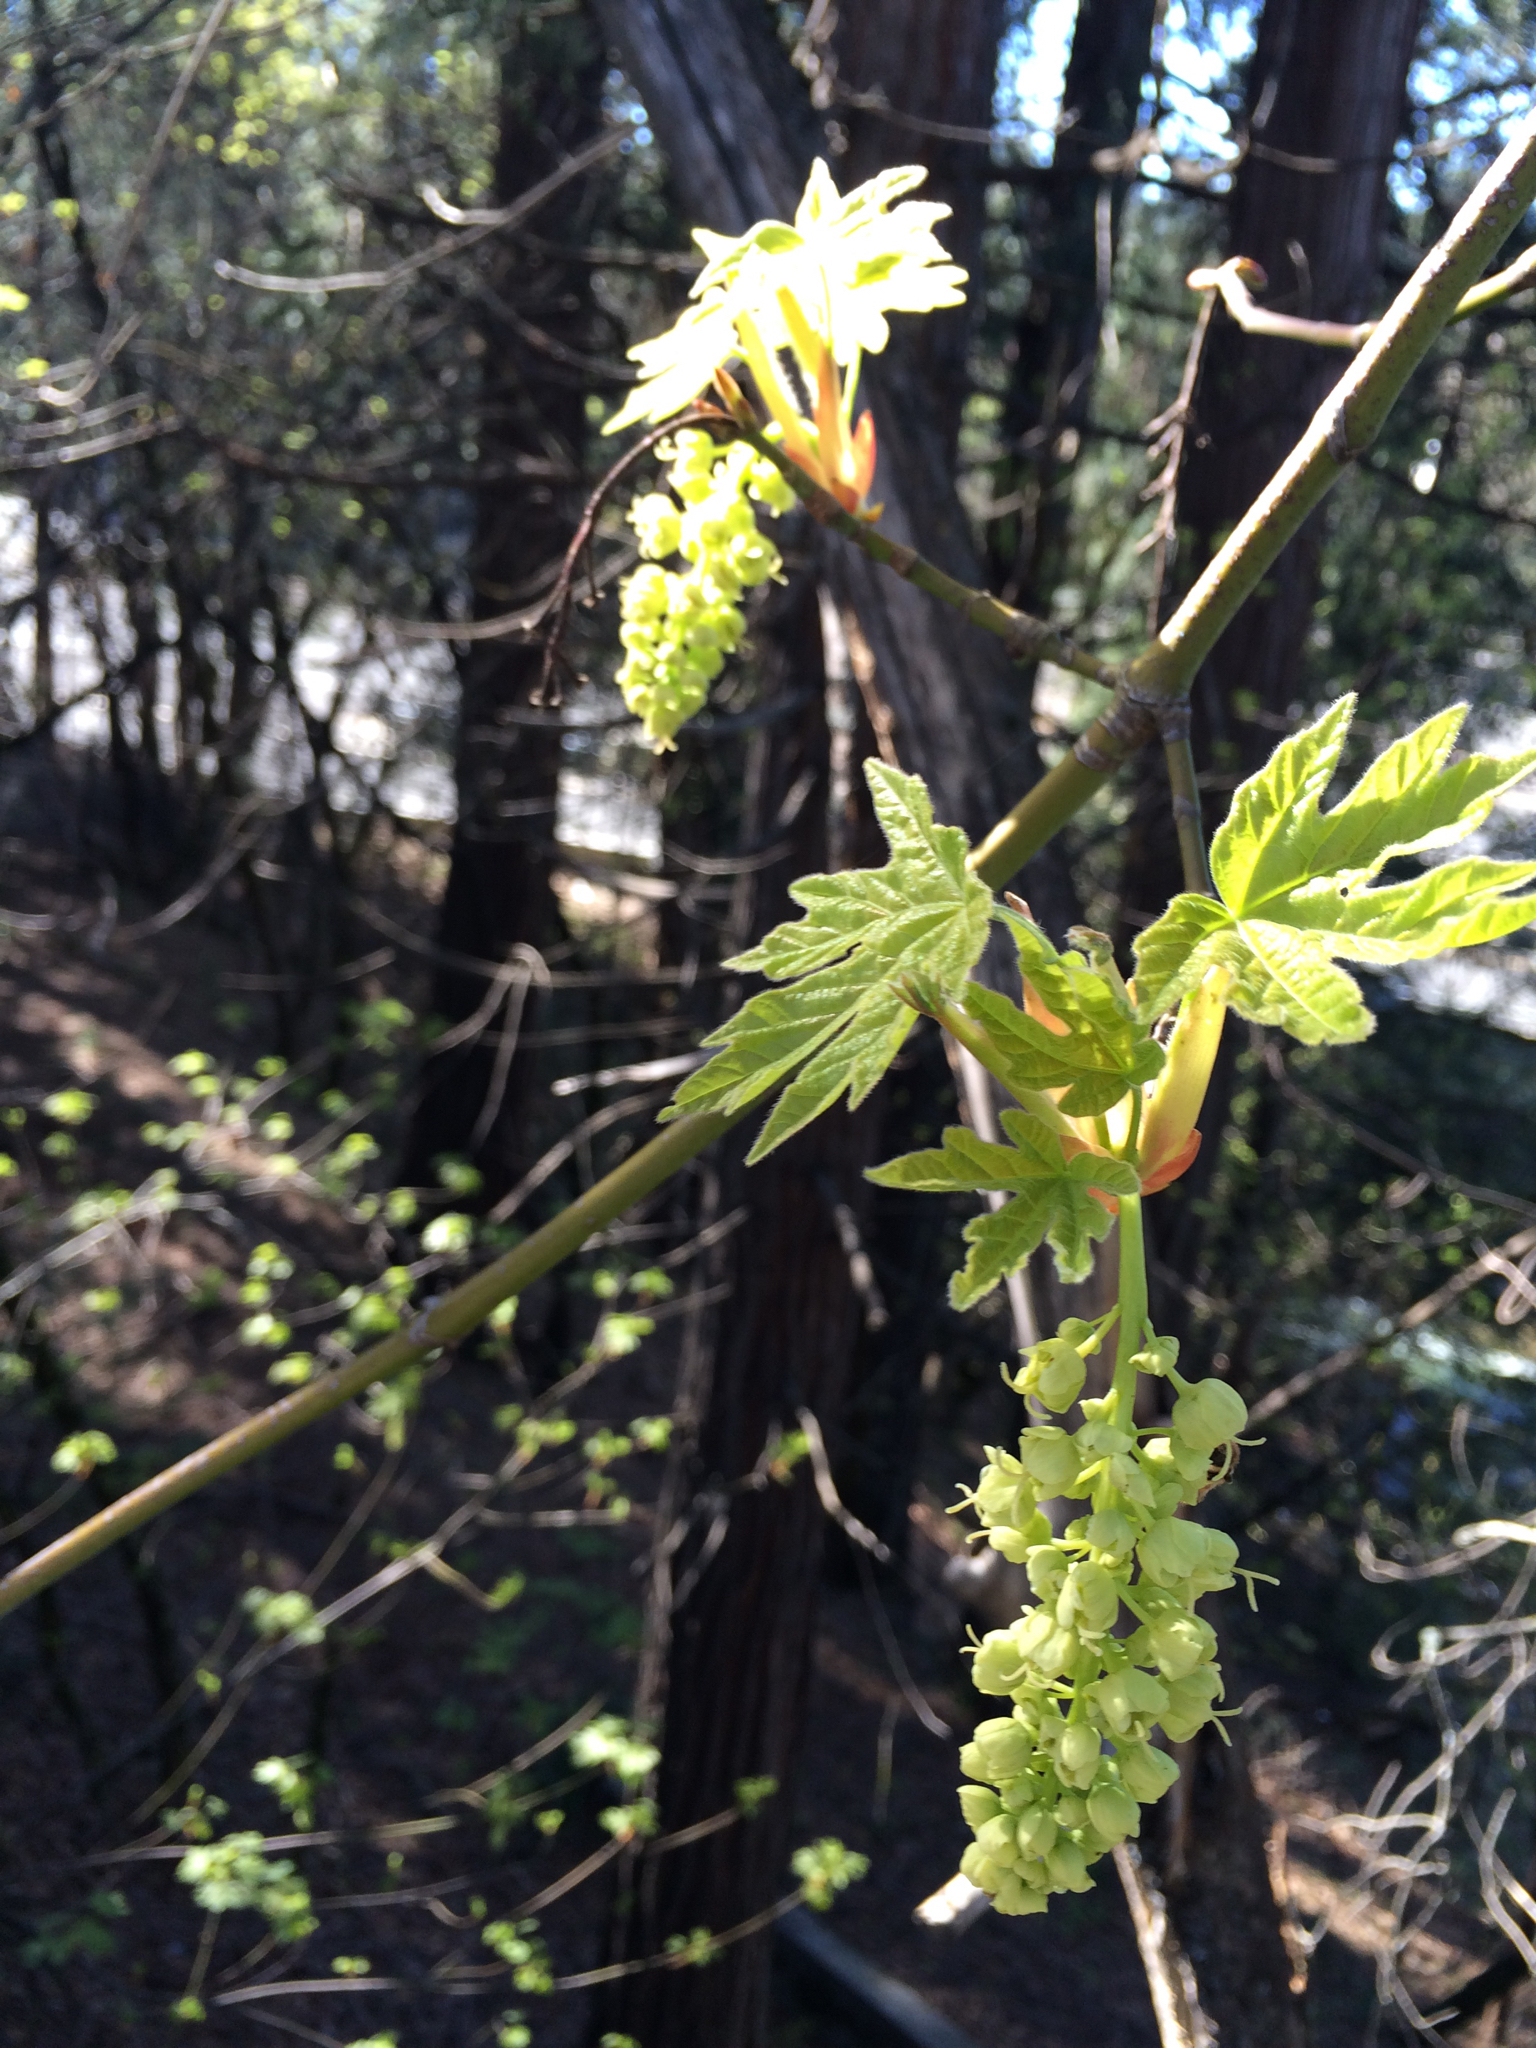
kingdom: Plantae
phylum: Tracheophyta
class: Magnoliopsida
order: Sapindales
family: Sapindaceae
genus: Acer
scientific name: Acer macrophyllum
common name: Oregon maple
